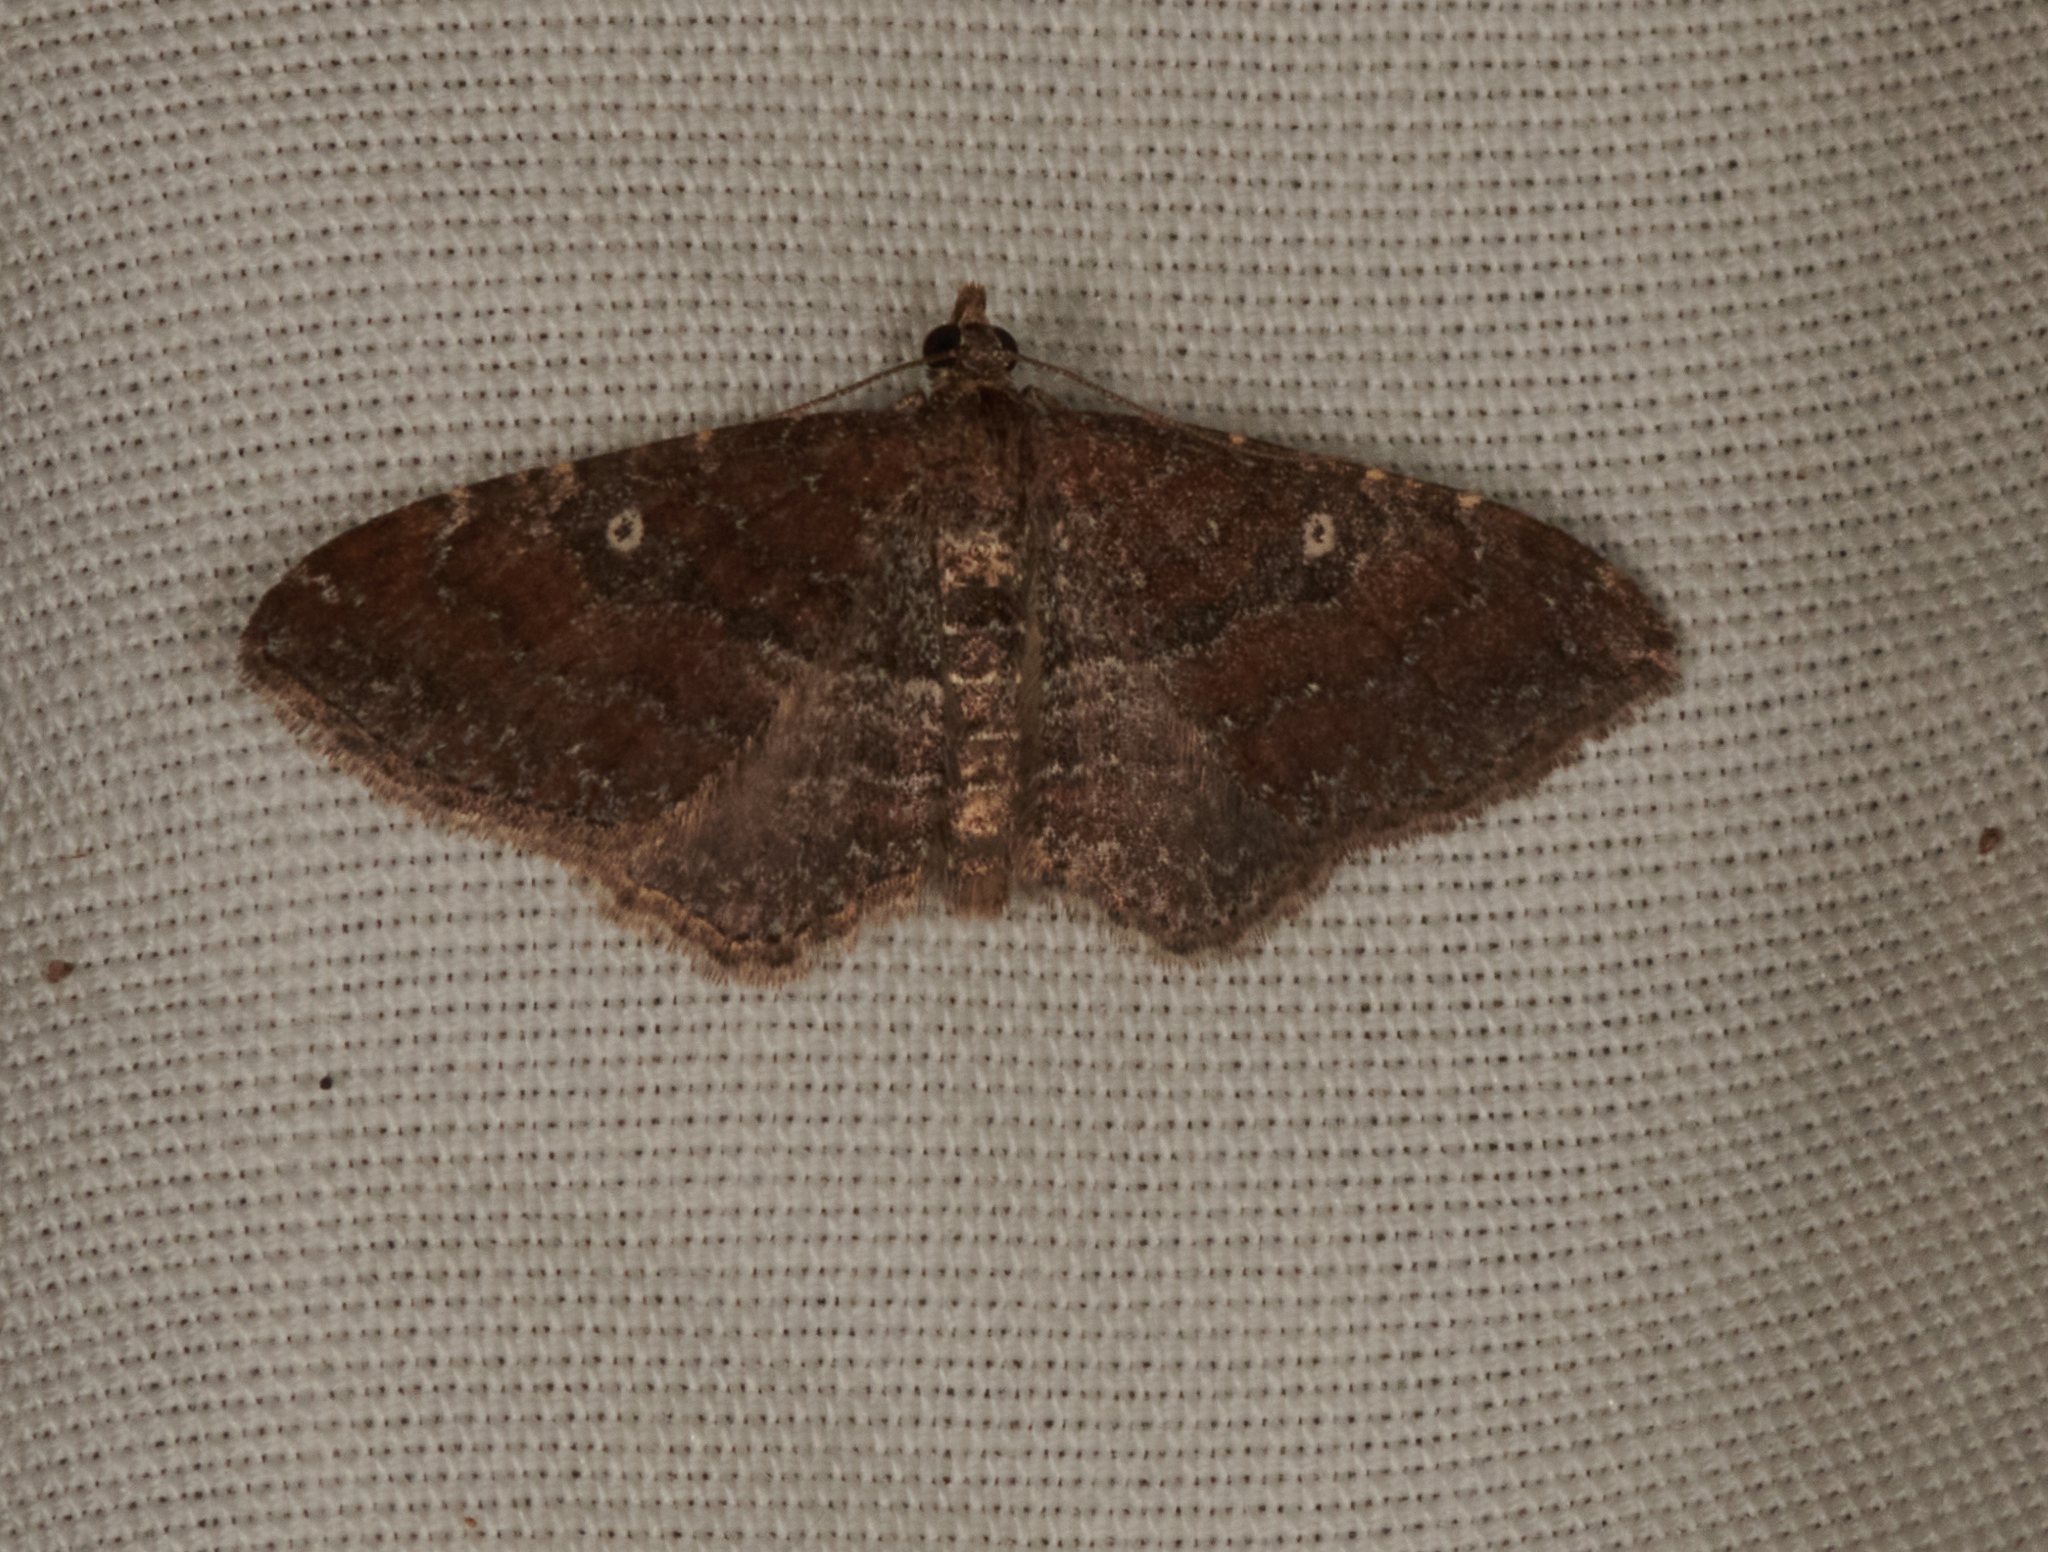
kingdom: Animalia
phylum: Arthropoda
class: Insecta
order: Lepidoptera
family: Geometridae
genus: Orthonama
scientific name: Orthonama obstipata
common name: The gem
